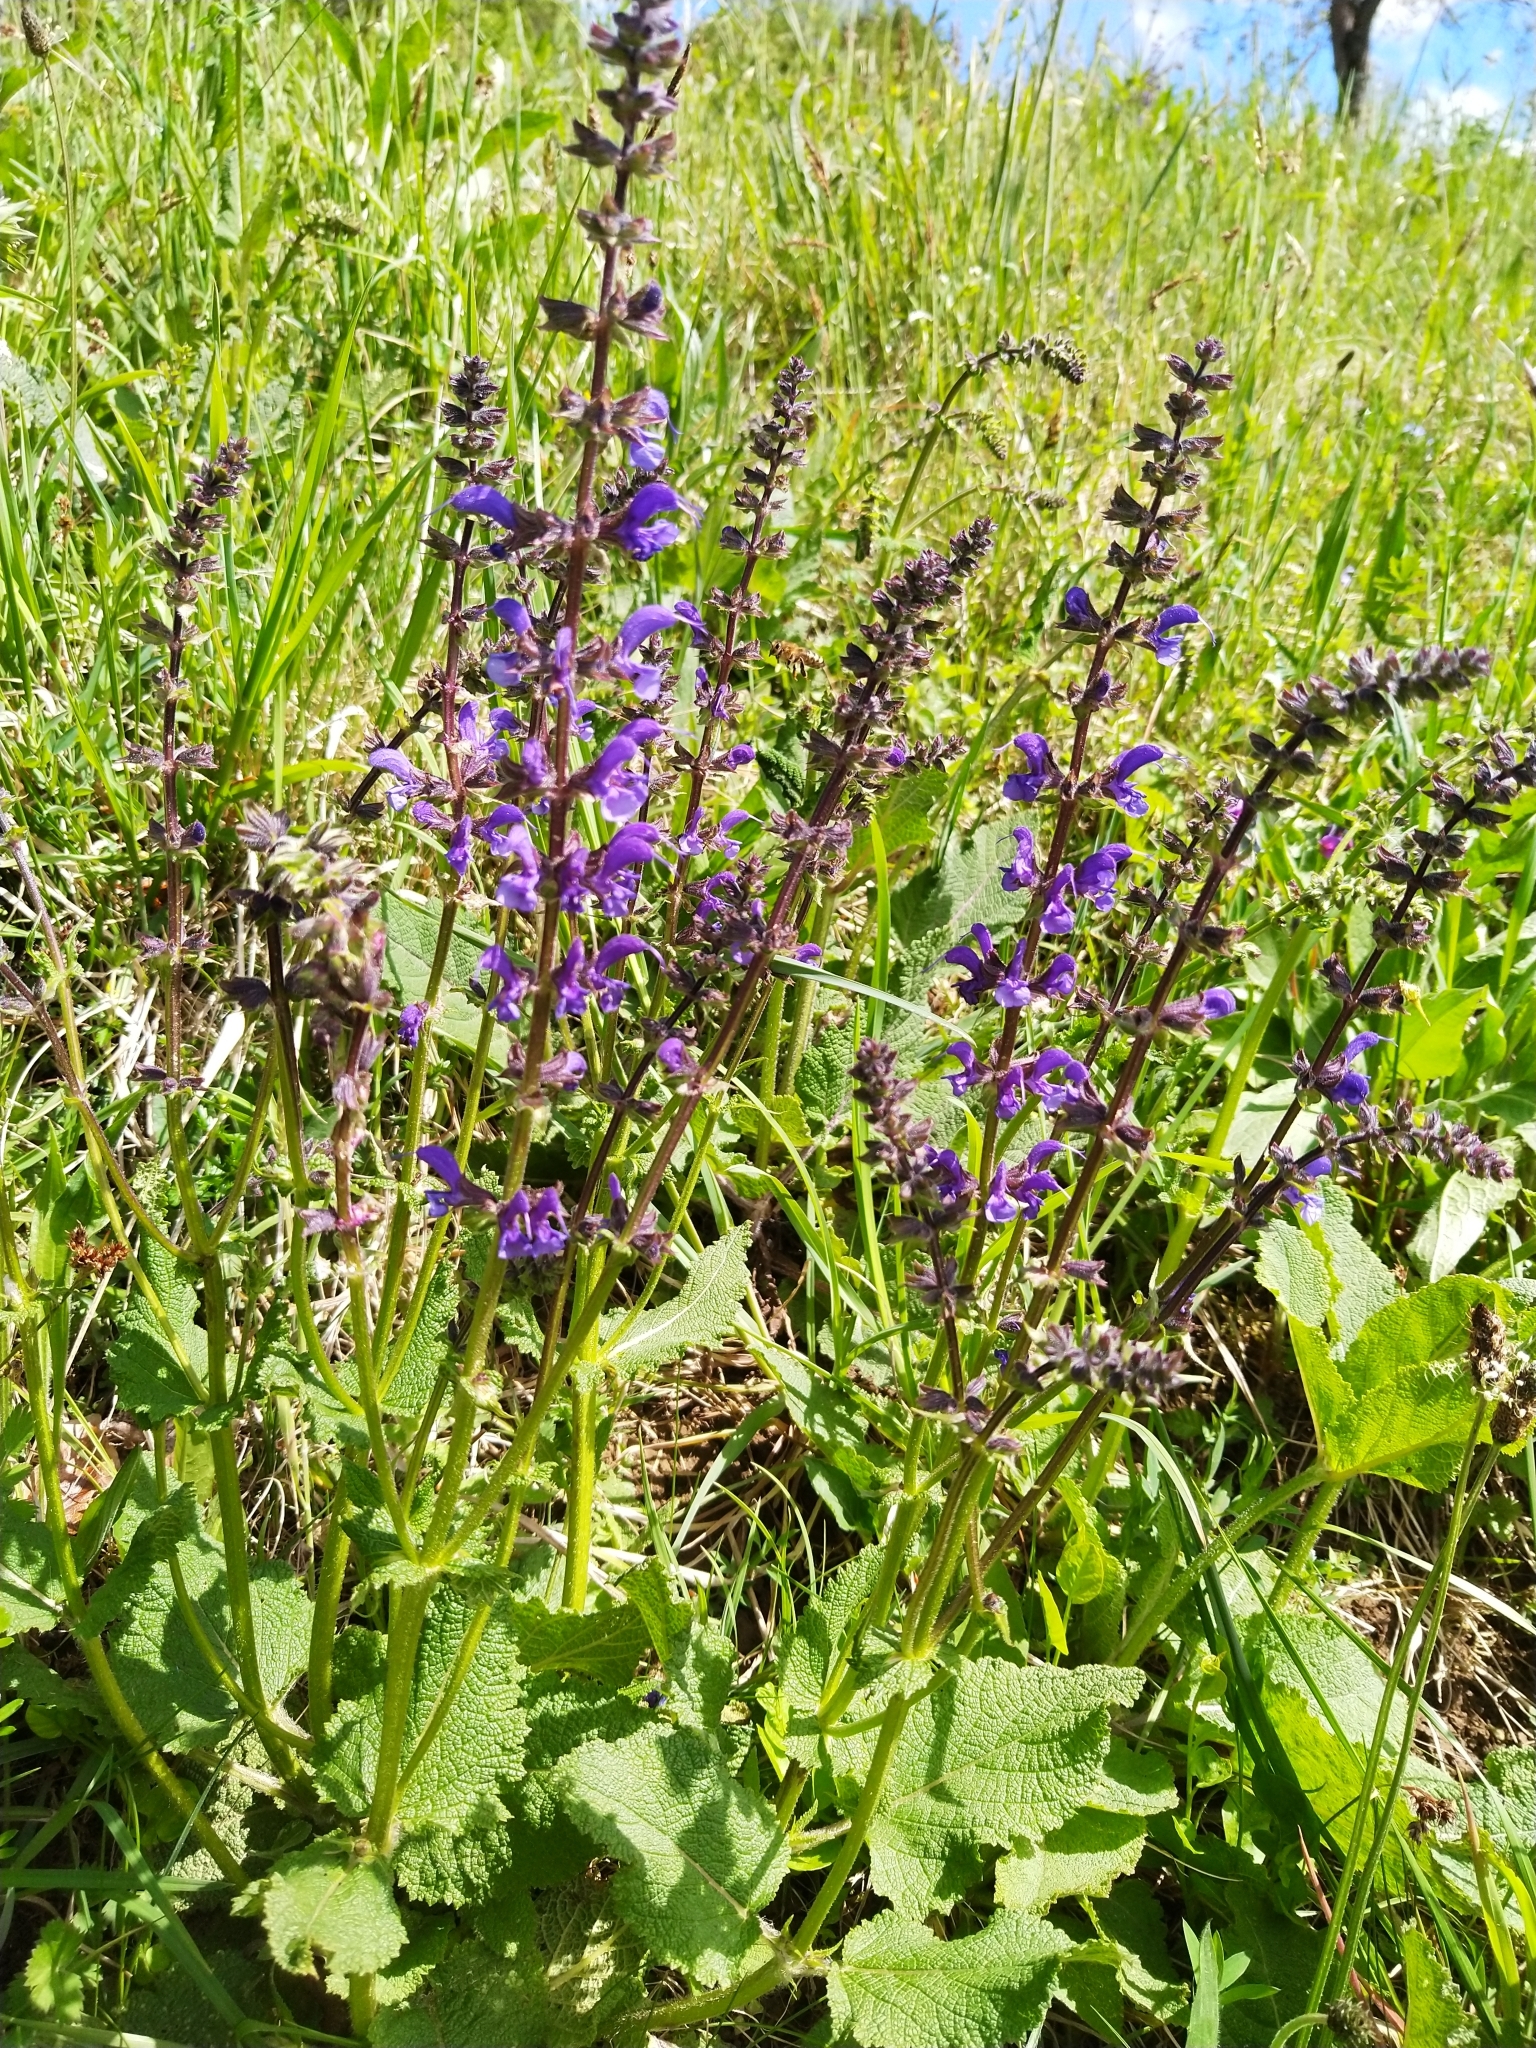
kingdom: Plantae
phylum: Tracheophyta
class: Magnoliopsida
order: Lamiales
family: Lamiaceae
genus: Salvia
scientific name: Salvia pratensis
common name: Meadow sage
